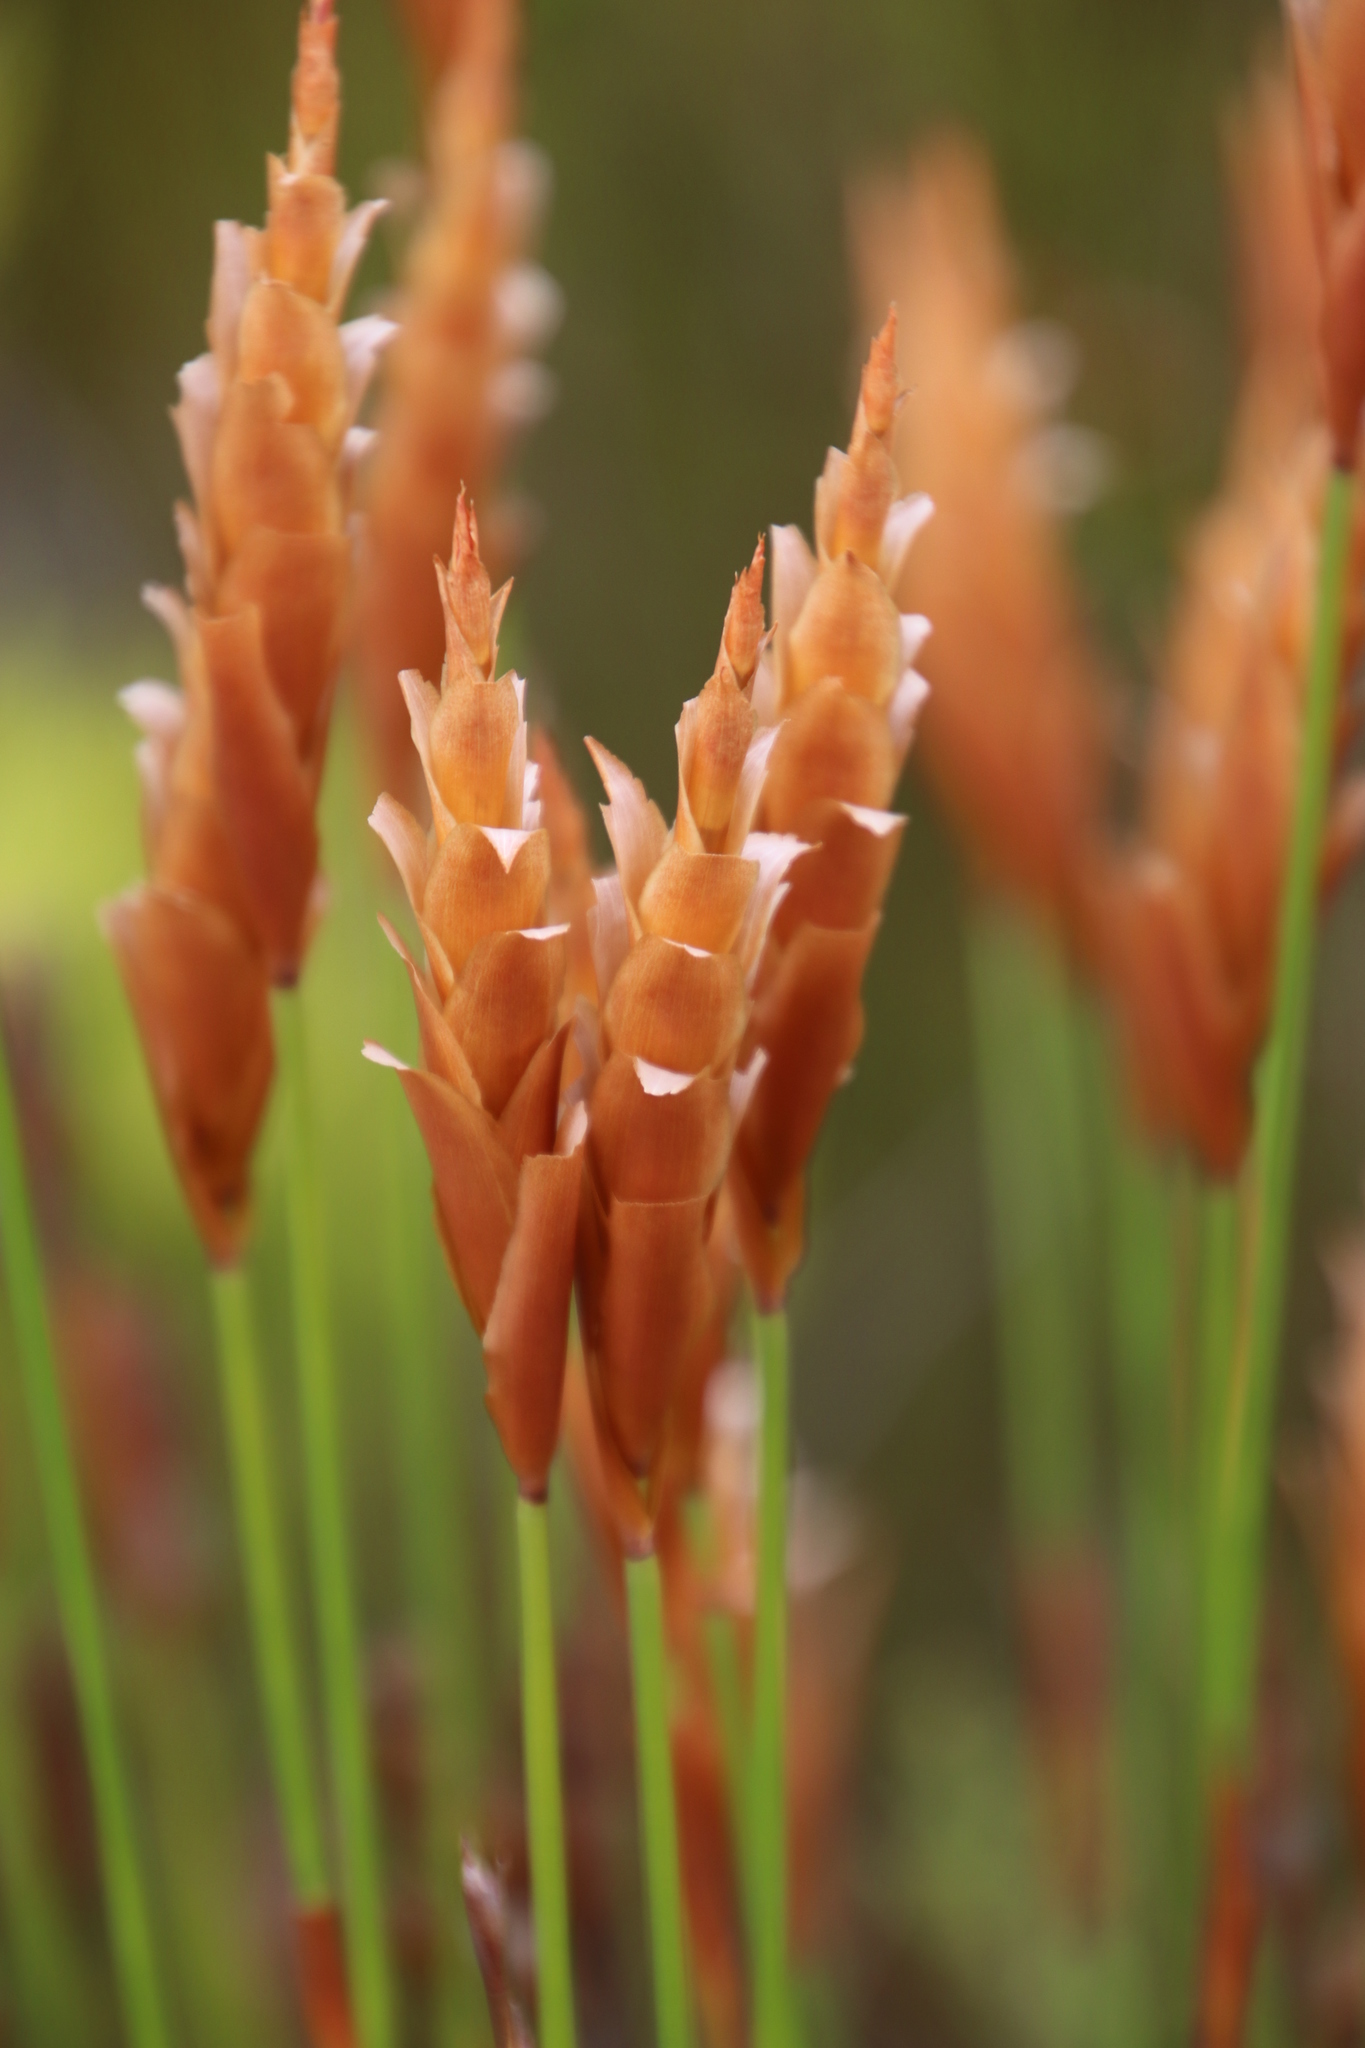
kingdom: Plantae
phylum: Tracheophyta
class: Liliopsida
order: Poales
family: Restionaceae
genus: Elegia
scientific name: Elegia spathacea
